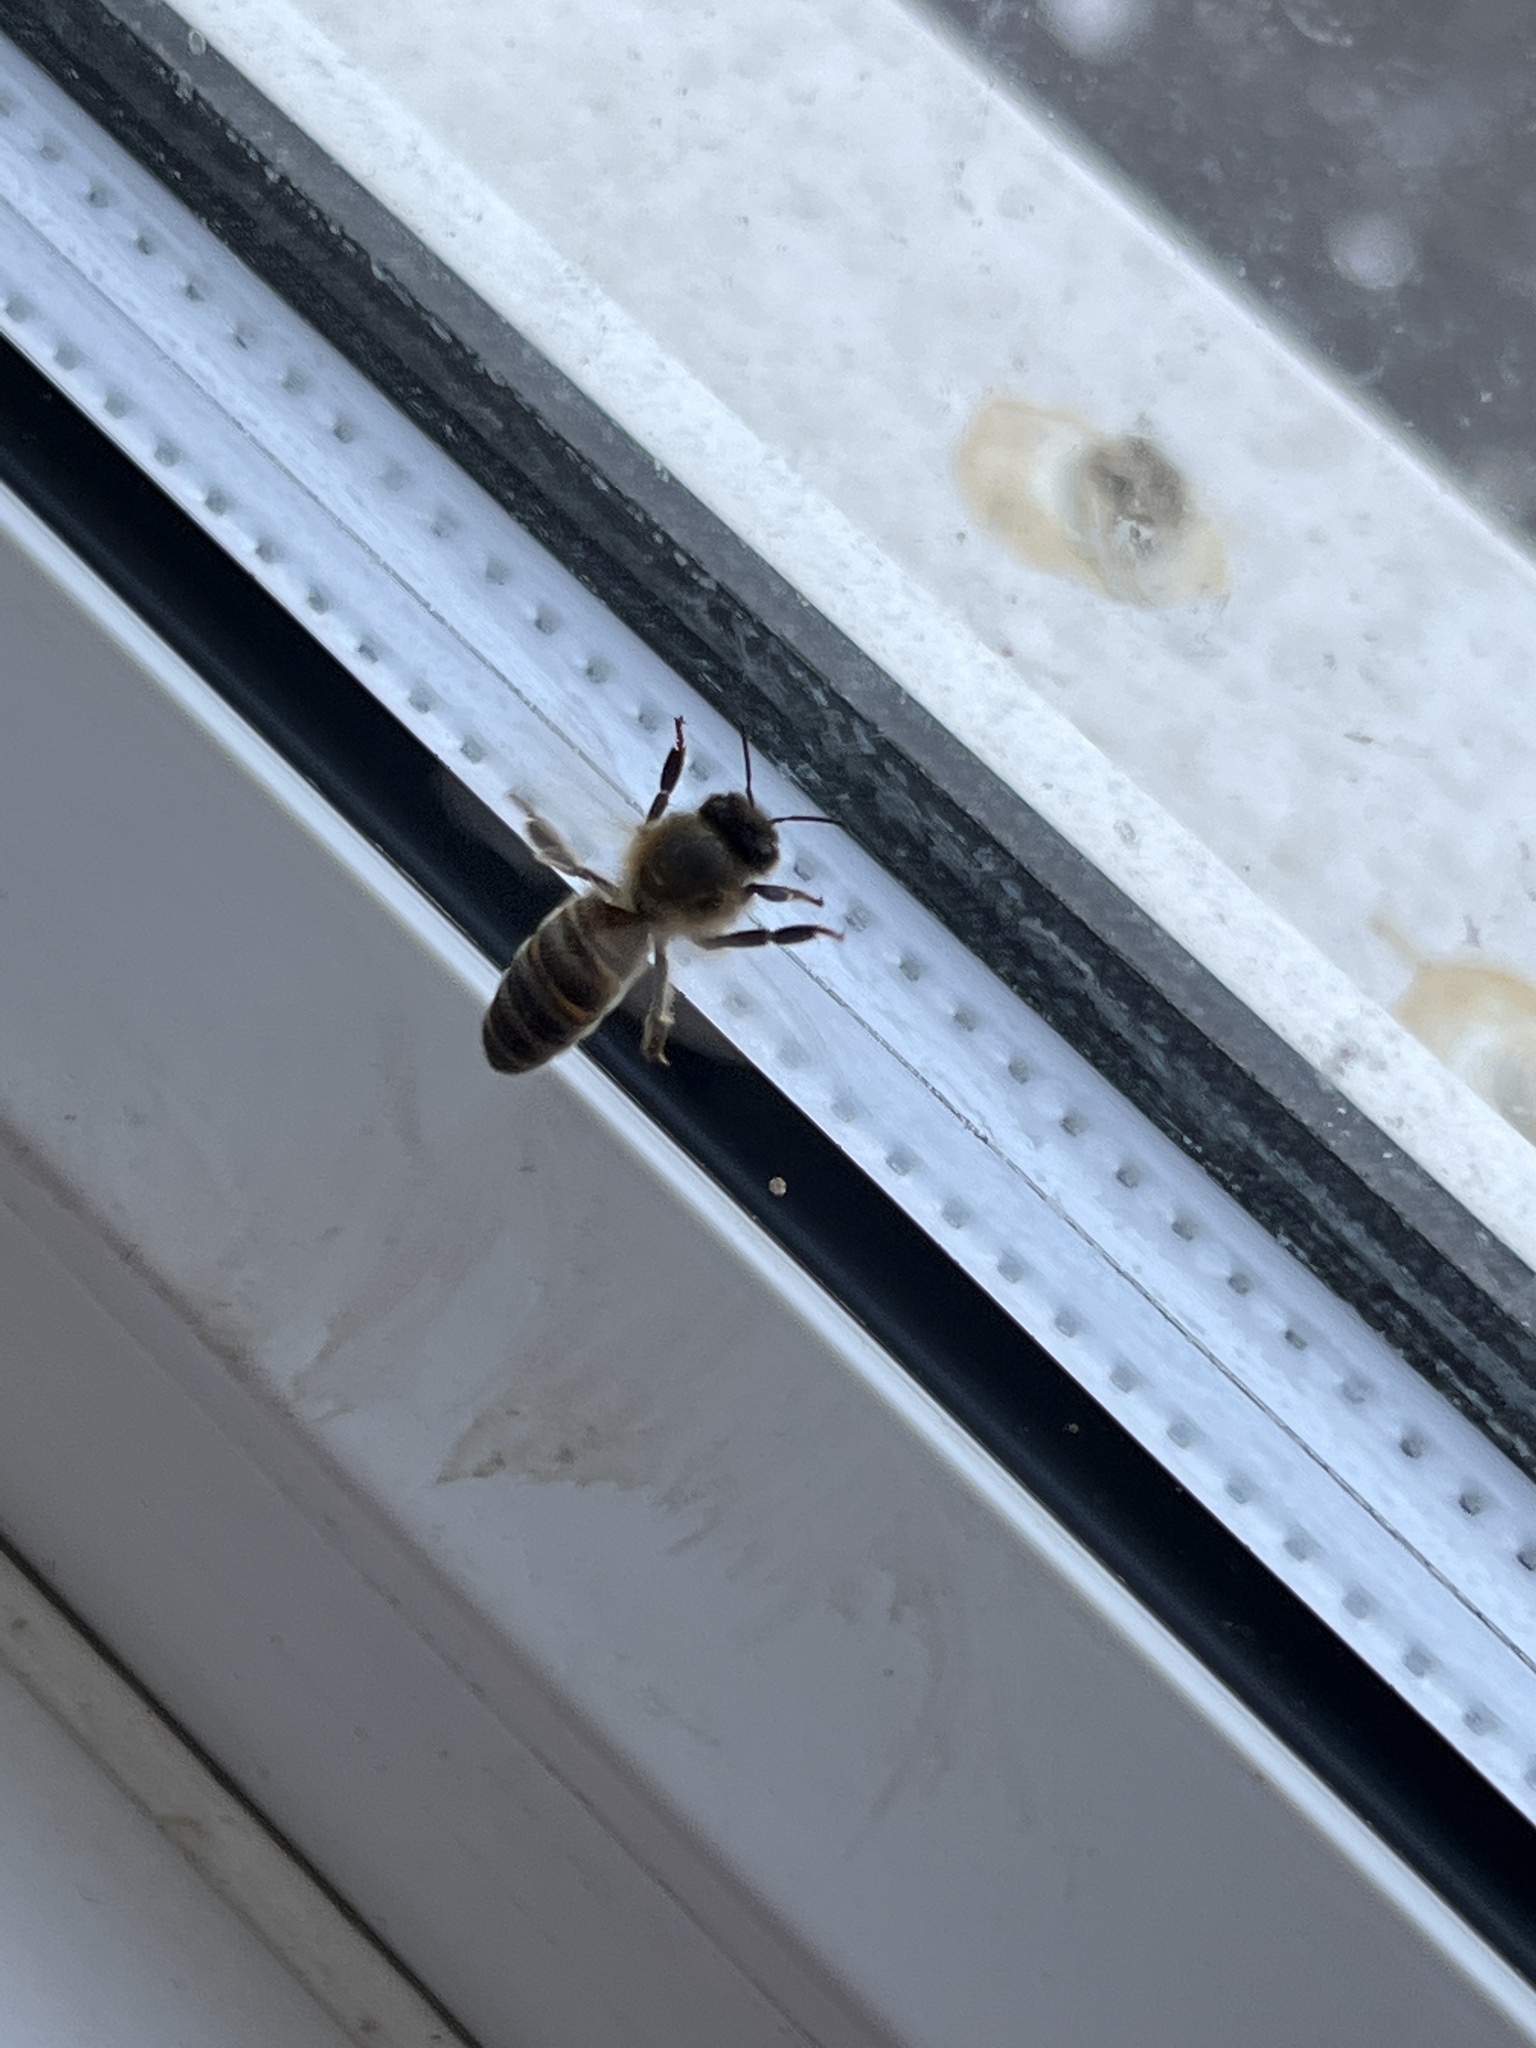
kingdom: Animalia
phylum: Arthropoda
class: Insecta
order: Hymenoptera
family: Apidae
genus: Apis
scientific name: Apis mellifera
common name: Honey bee
